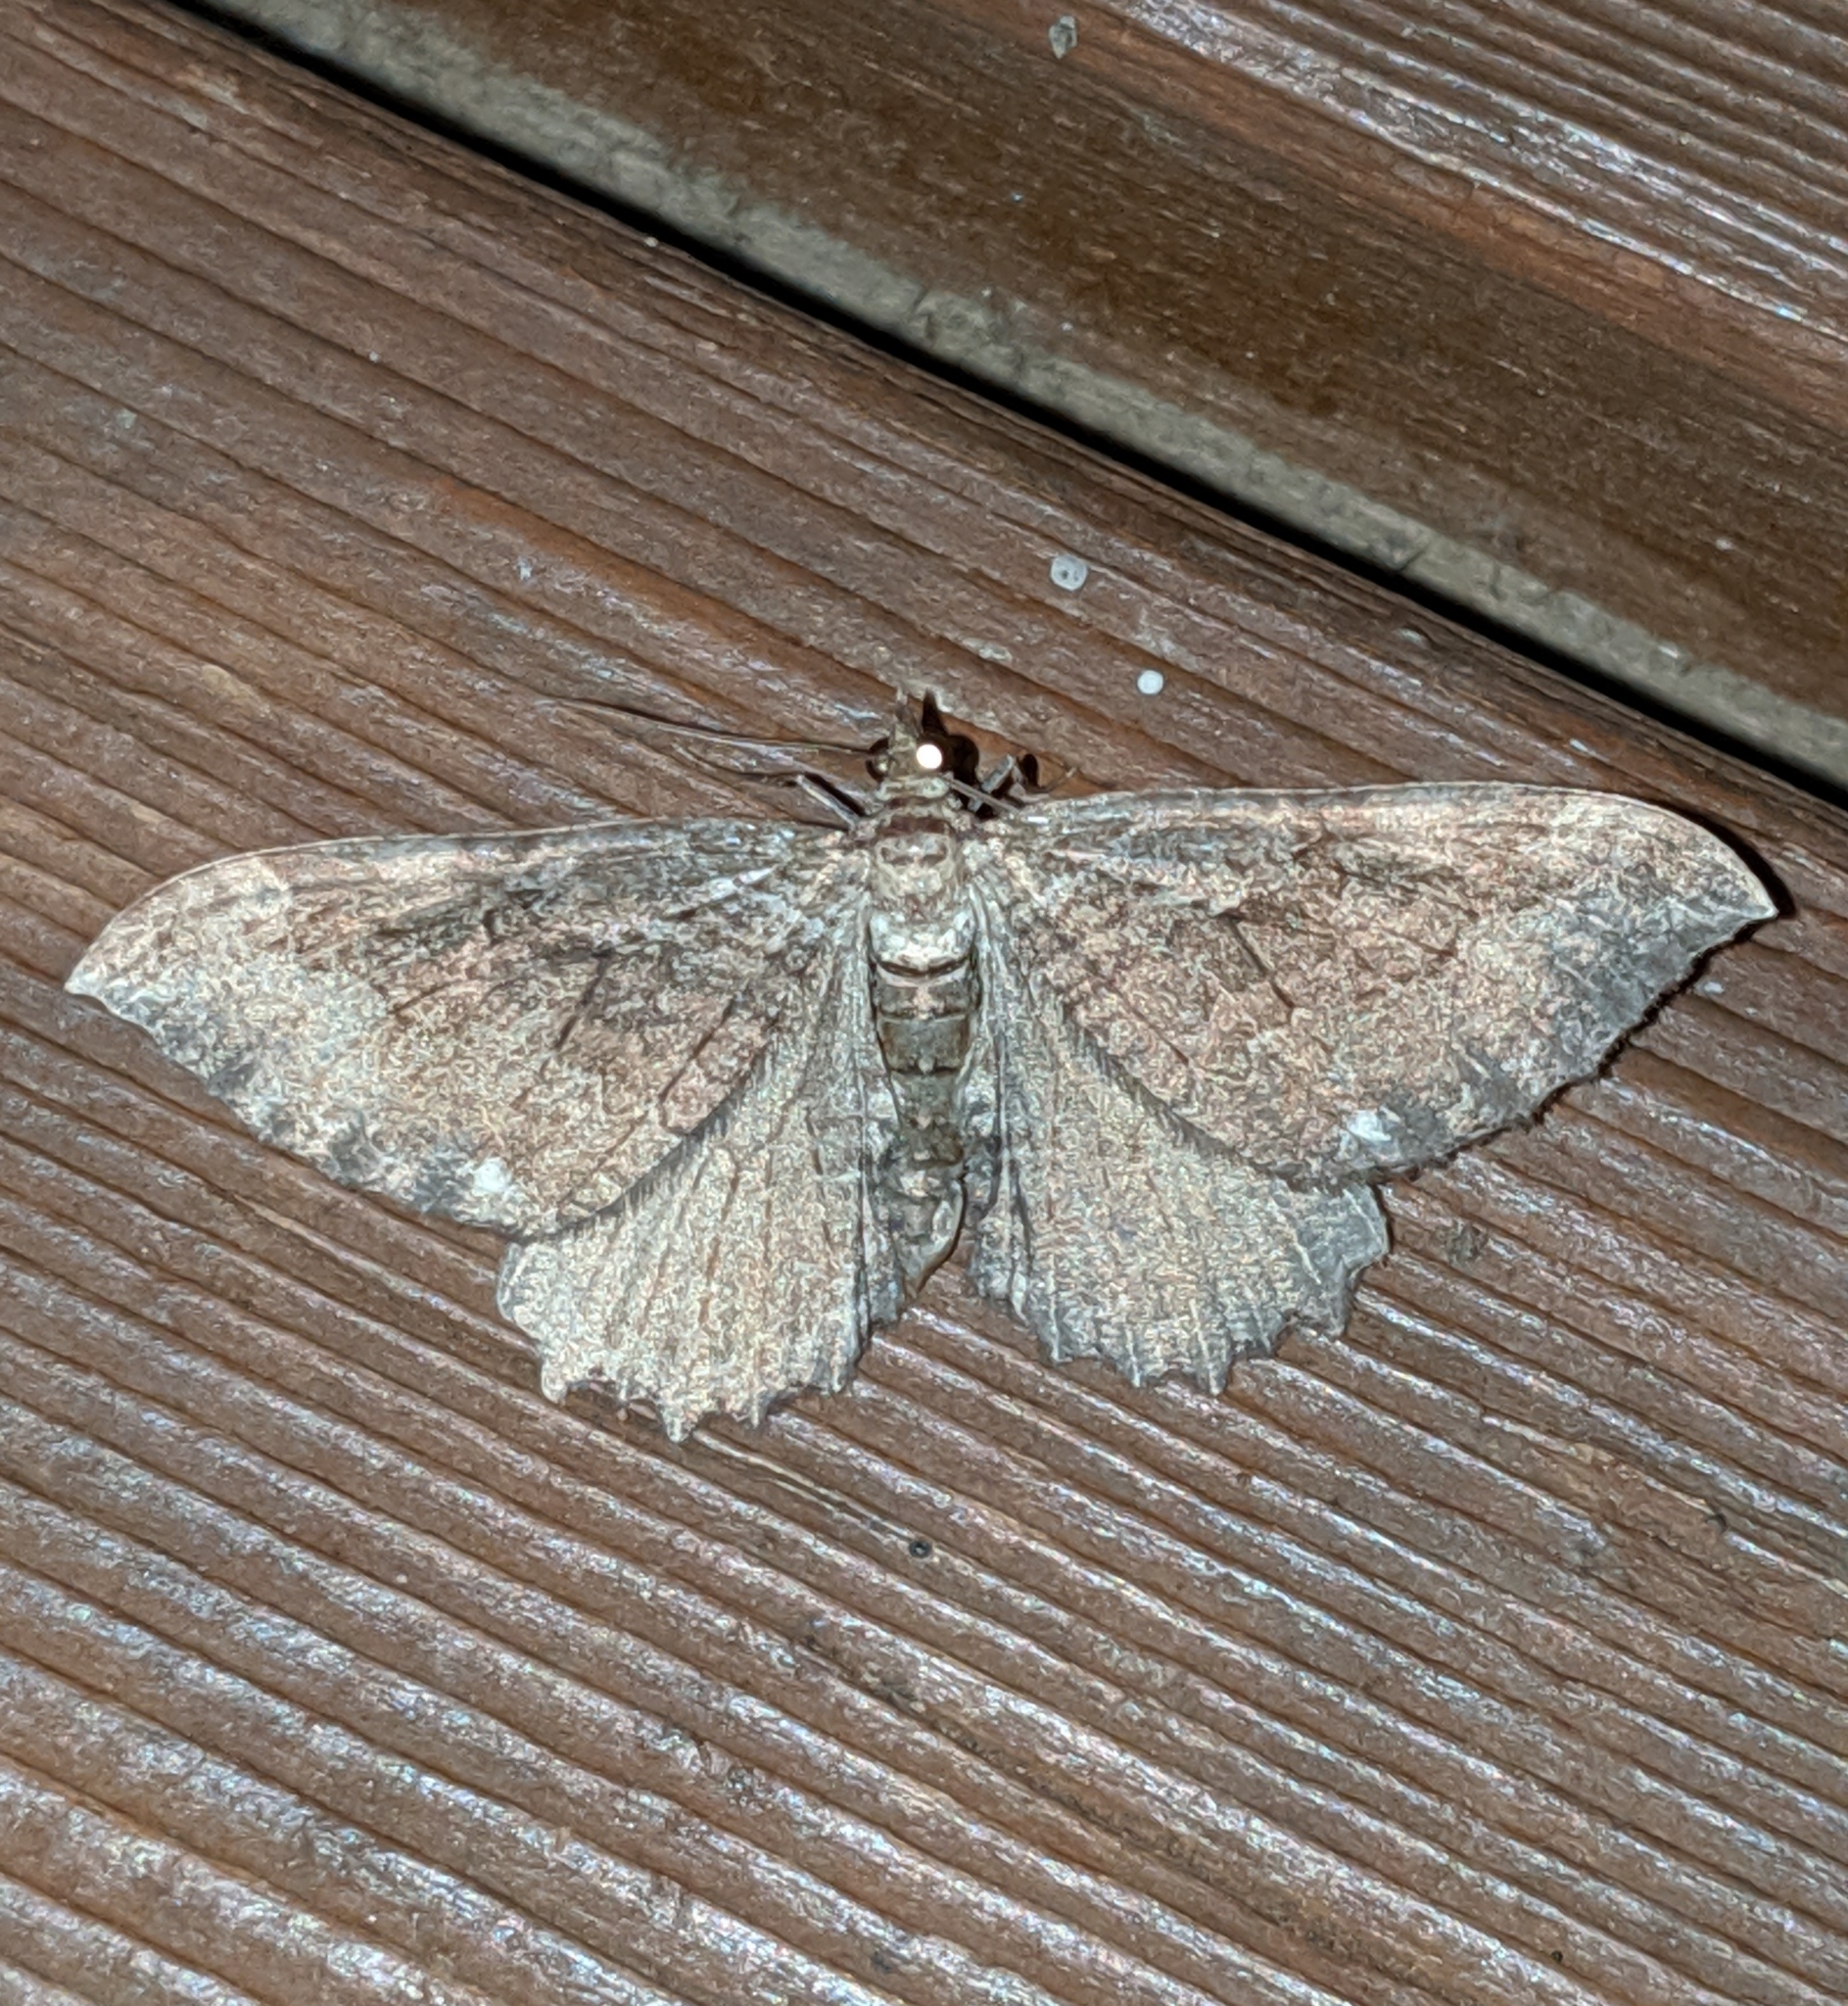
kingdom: Animalia
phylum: Arthropoda
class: Insecta
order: Lepidoptera
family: Geometridae
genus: Rheumaptera
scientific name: Rheumaptera
